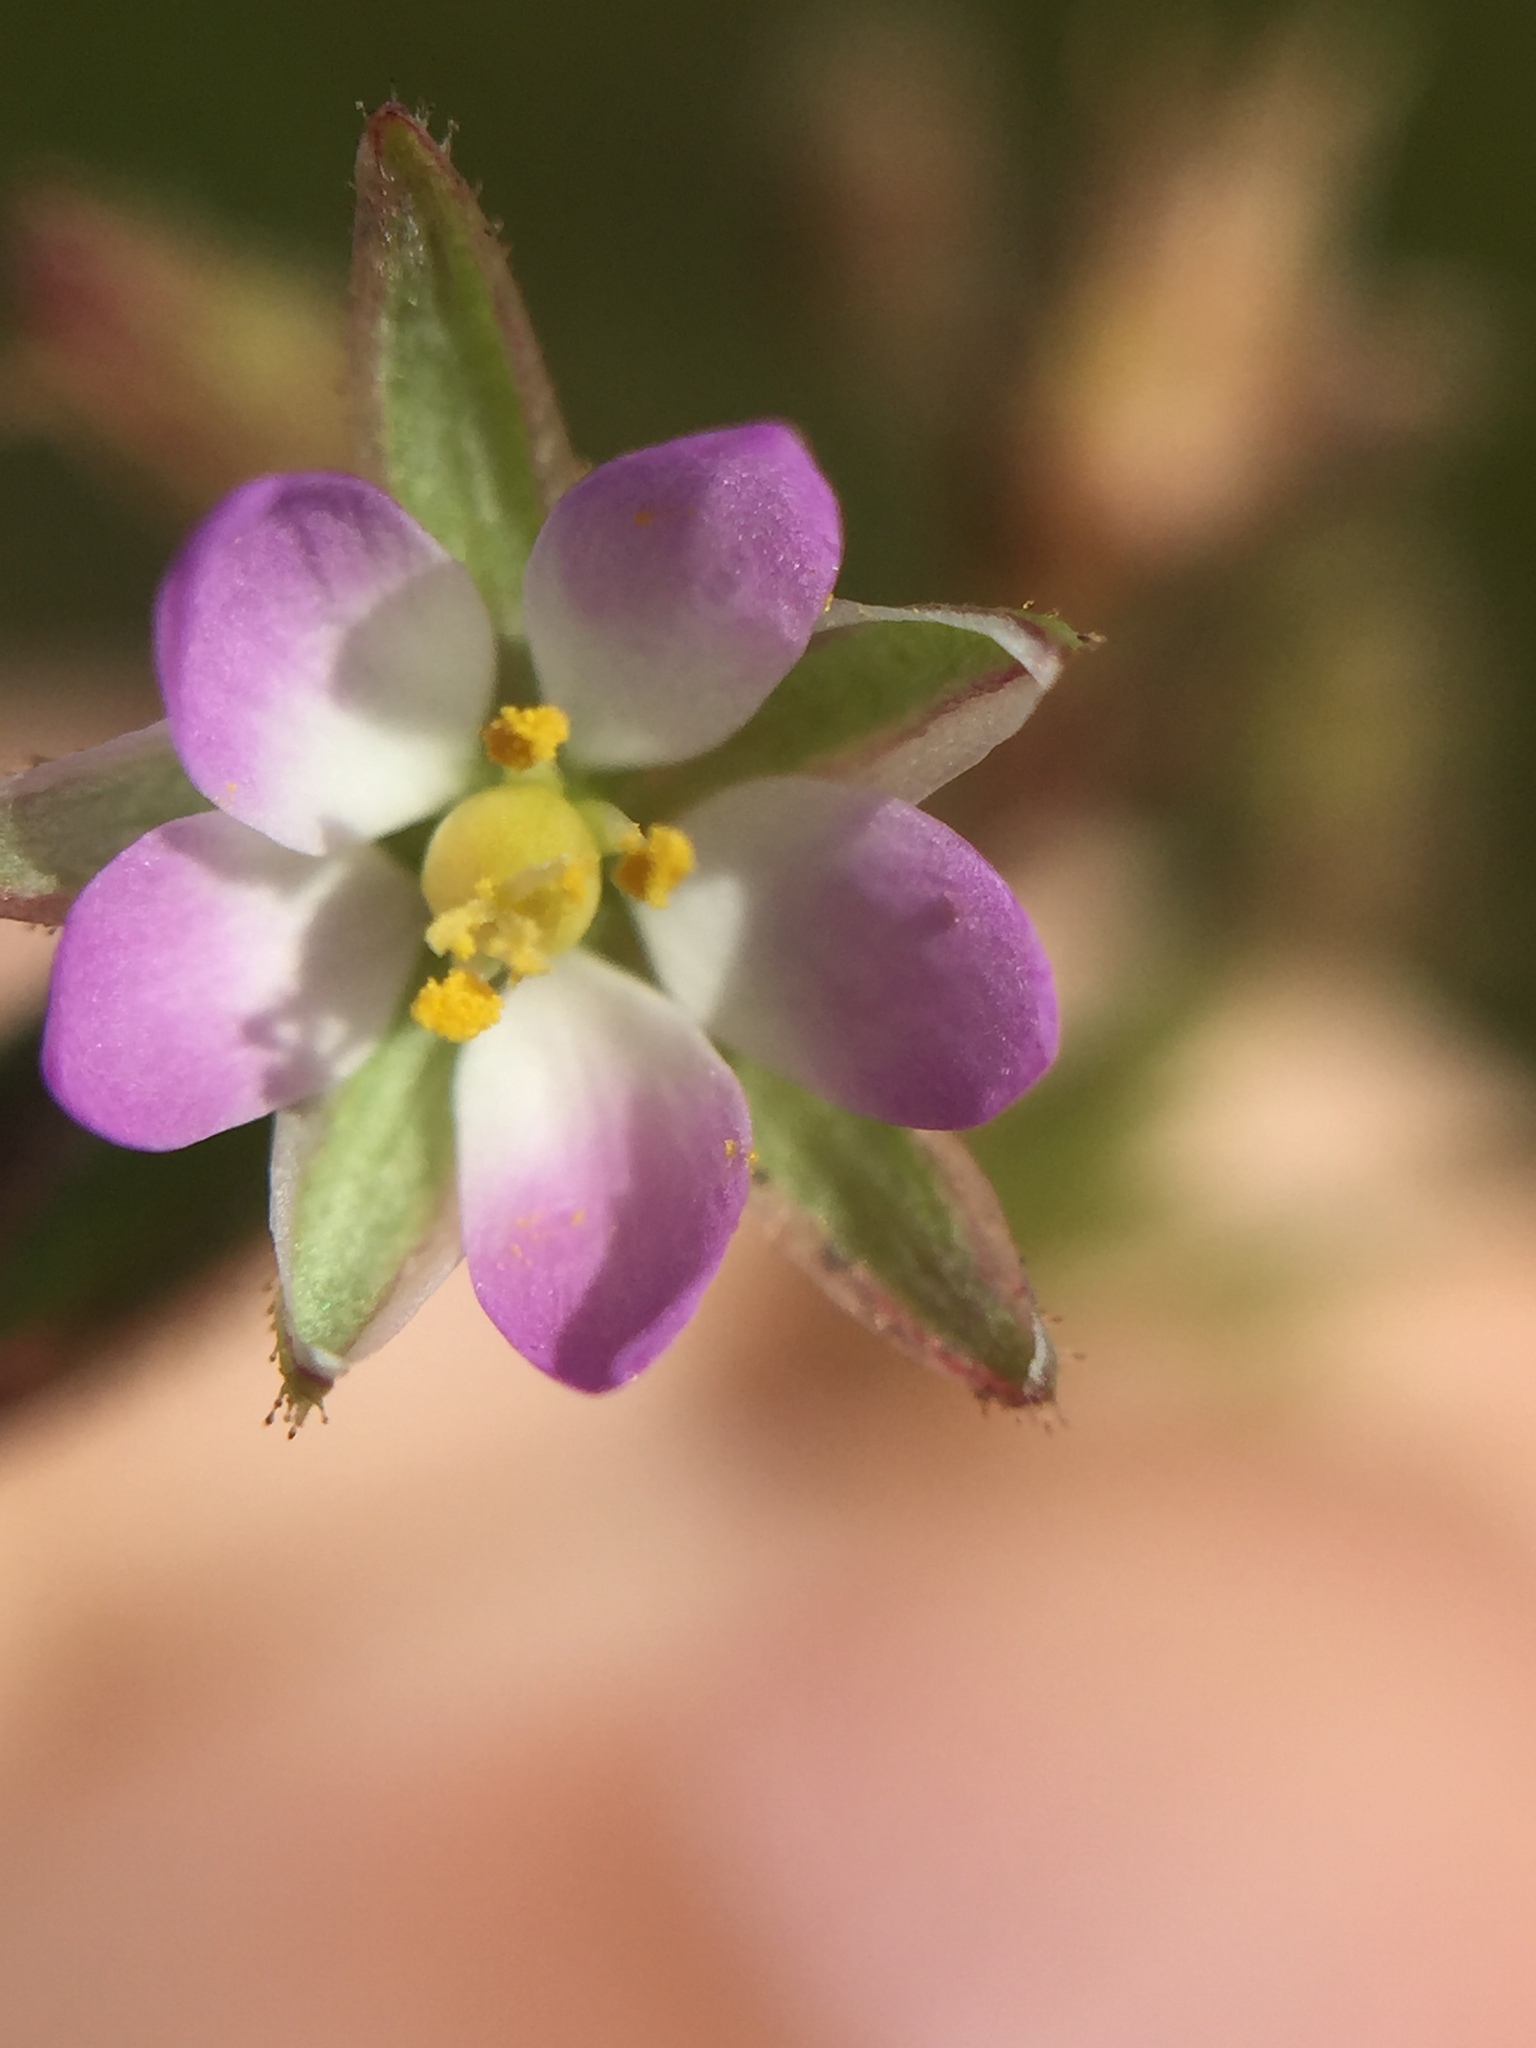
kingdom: Plantae
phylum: Tracheophyta
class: Magnoliopsida
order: Caryophyllales
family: Caryophyllaceae
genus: Spergularia
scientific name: Spergularia marina
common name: Lesser sea-spurrey
